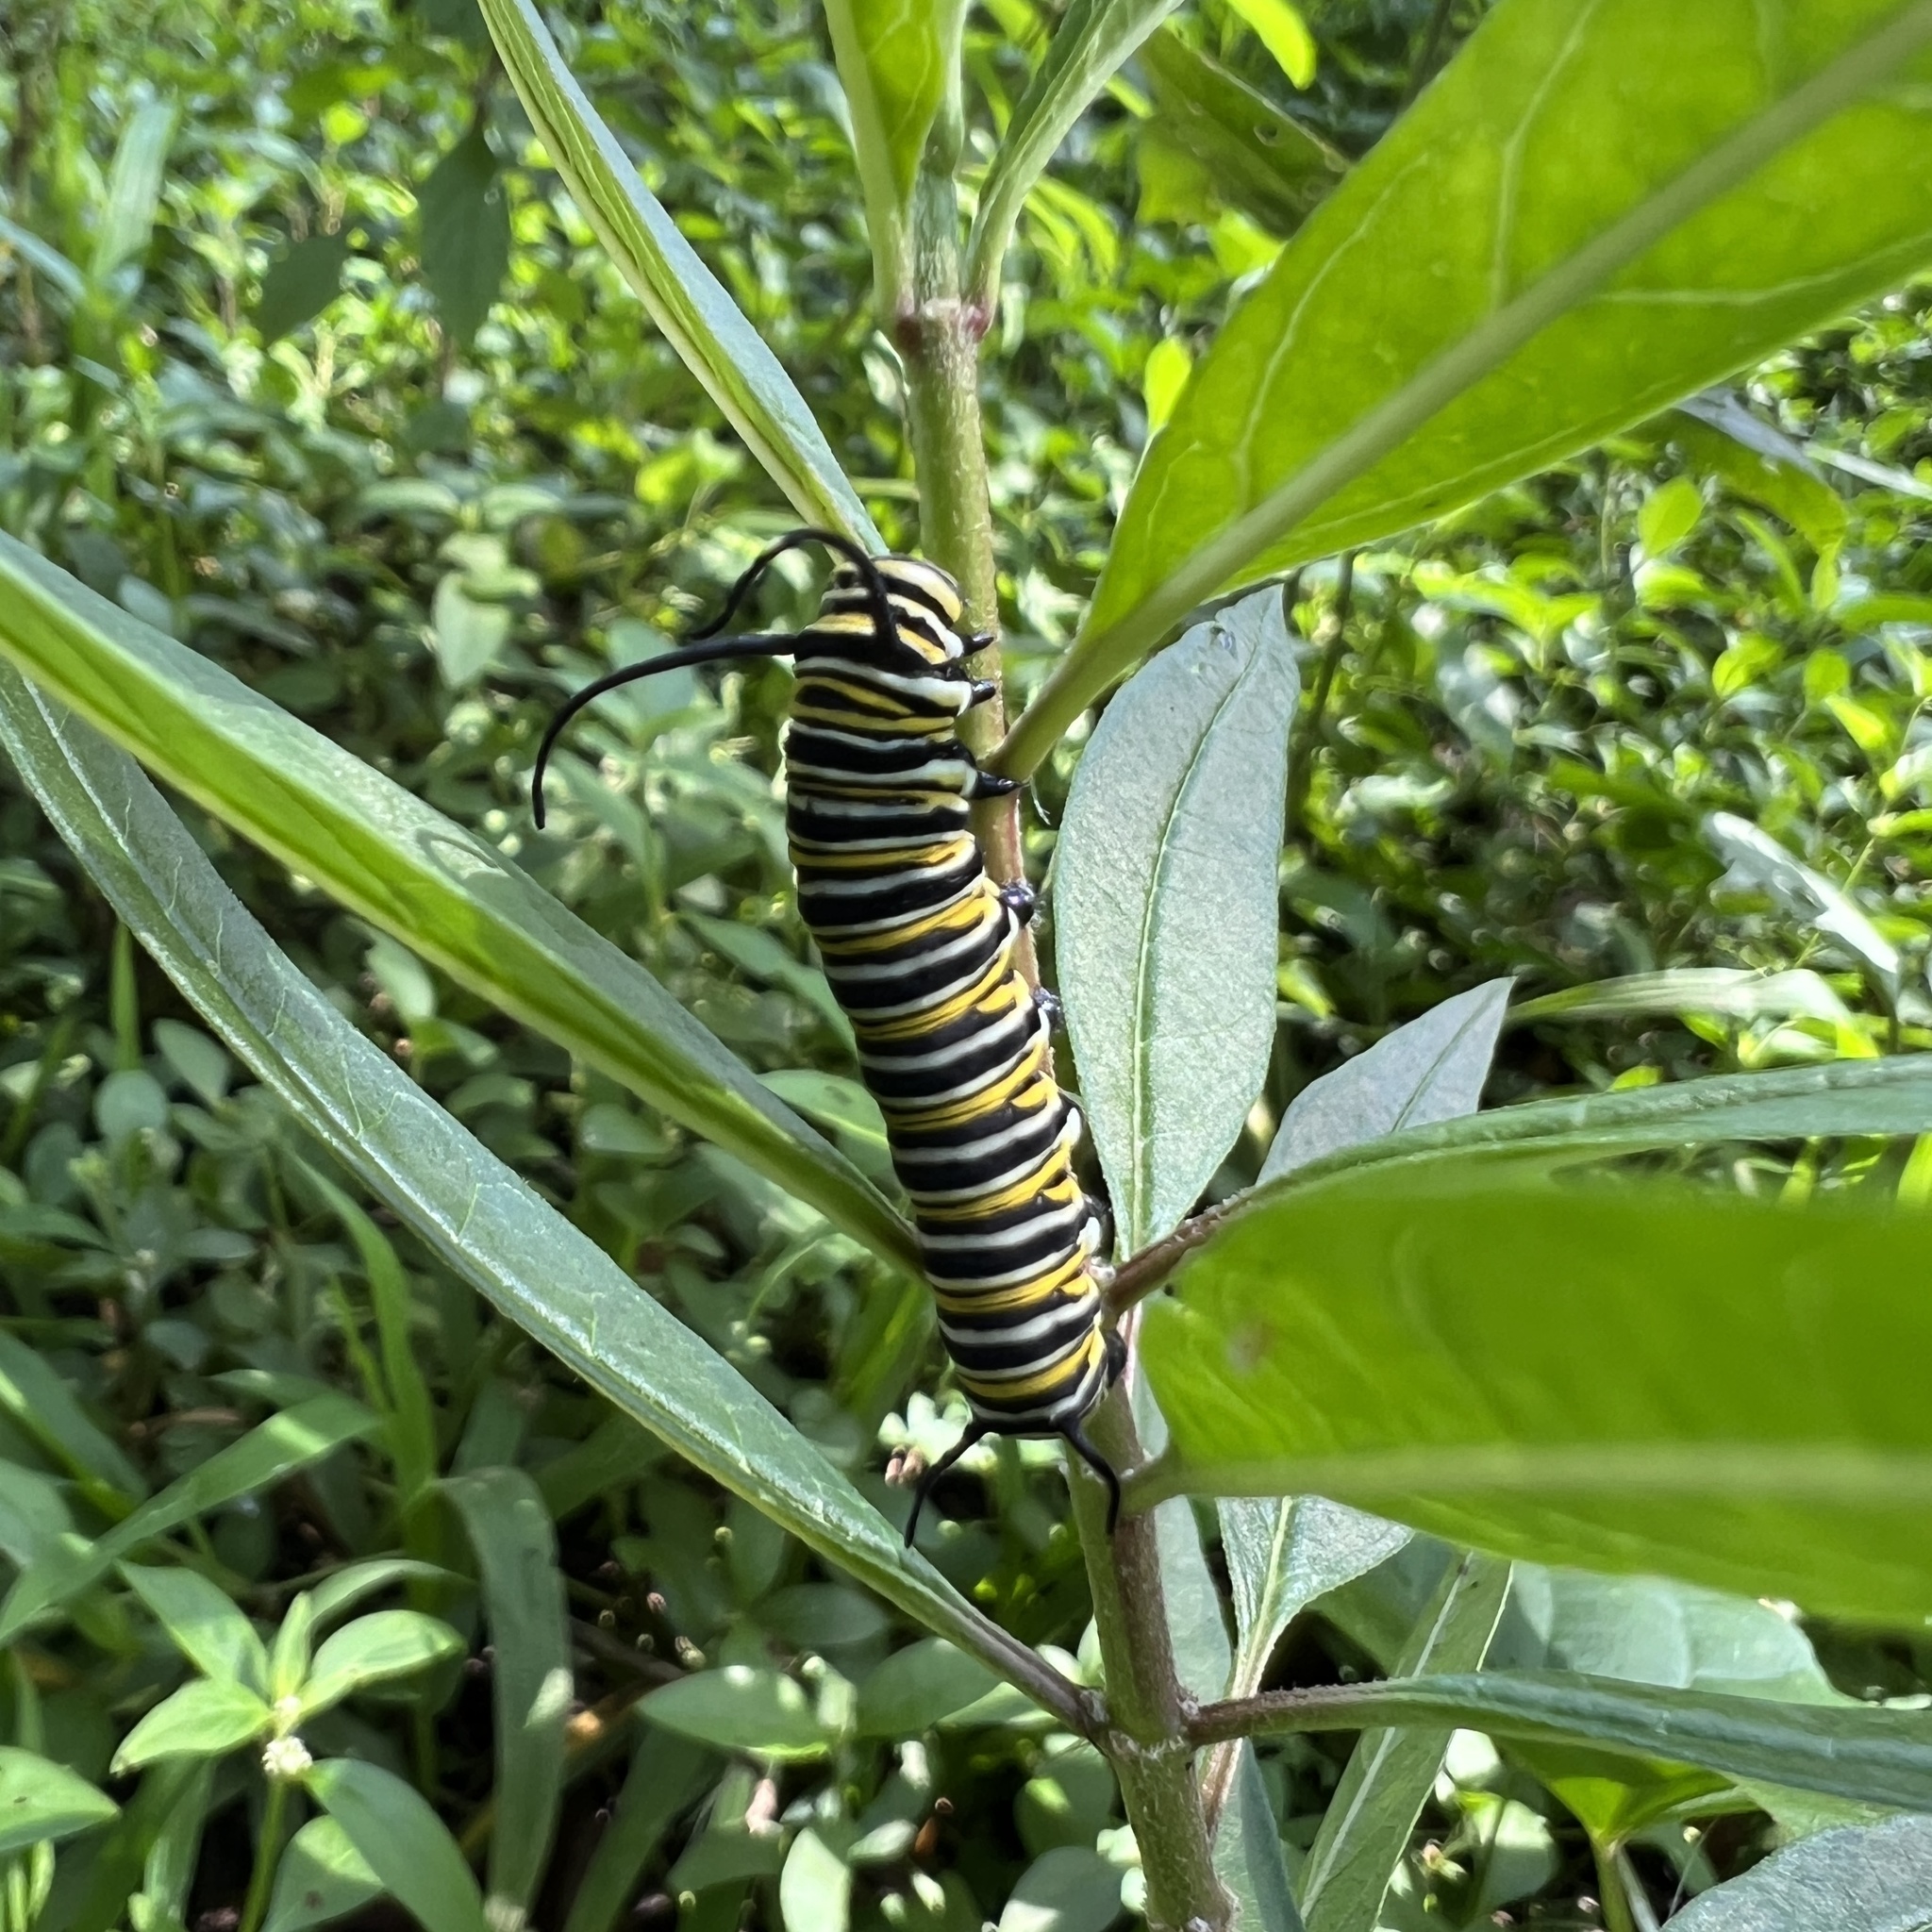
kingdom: Animalia
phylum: Arthropoda
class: Insecta
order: Lepidoptera
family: Nymphalidae
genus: Danaus
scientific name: Danaus plexippus
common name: Monarch
